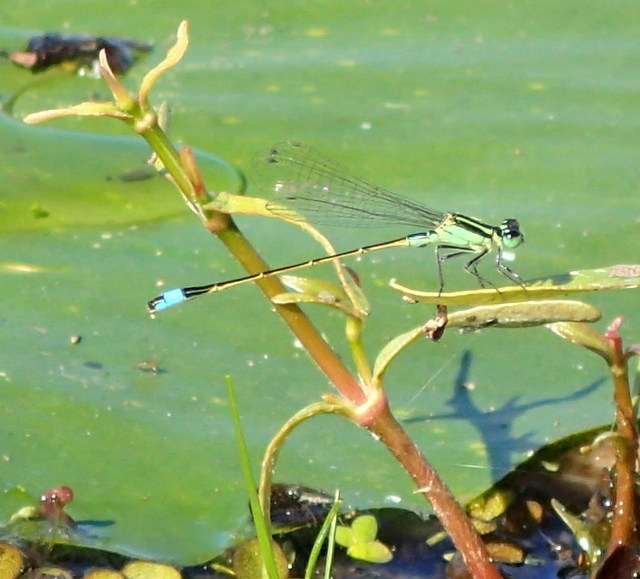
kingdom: Animalia
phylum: Arthropoda
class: Insecta
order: Odonata
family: Coenagrionidae
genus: Ischnura
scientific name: Ischnura ramburii
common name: Rambur's forktail
